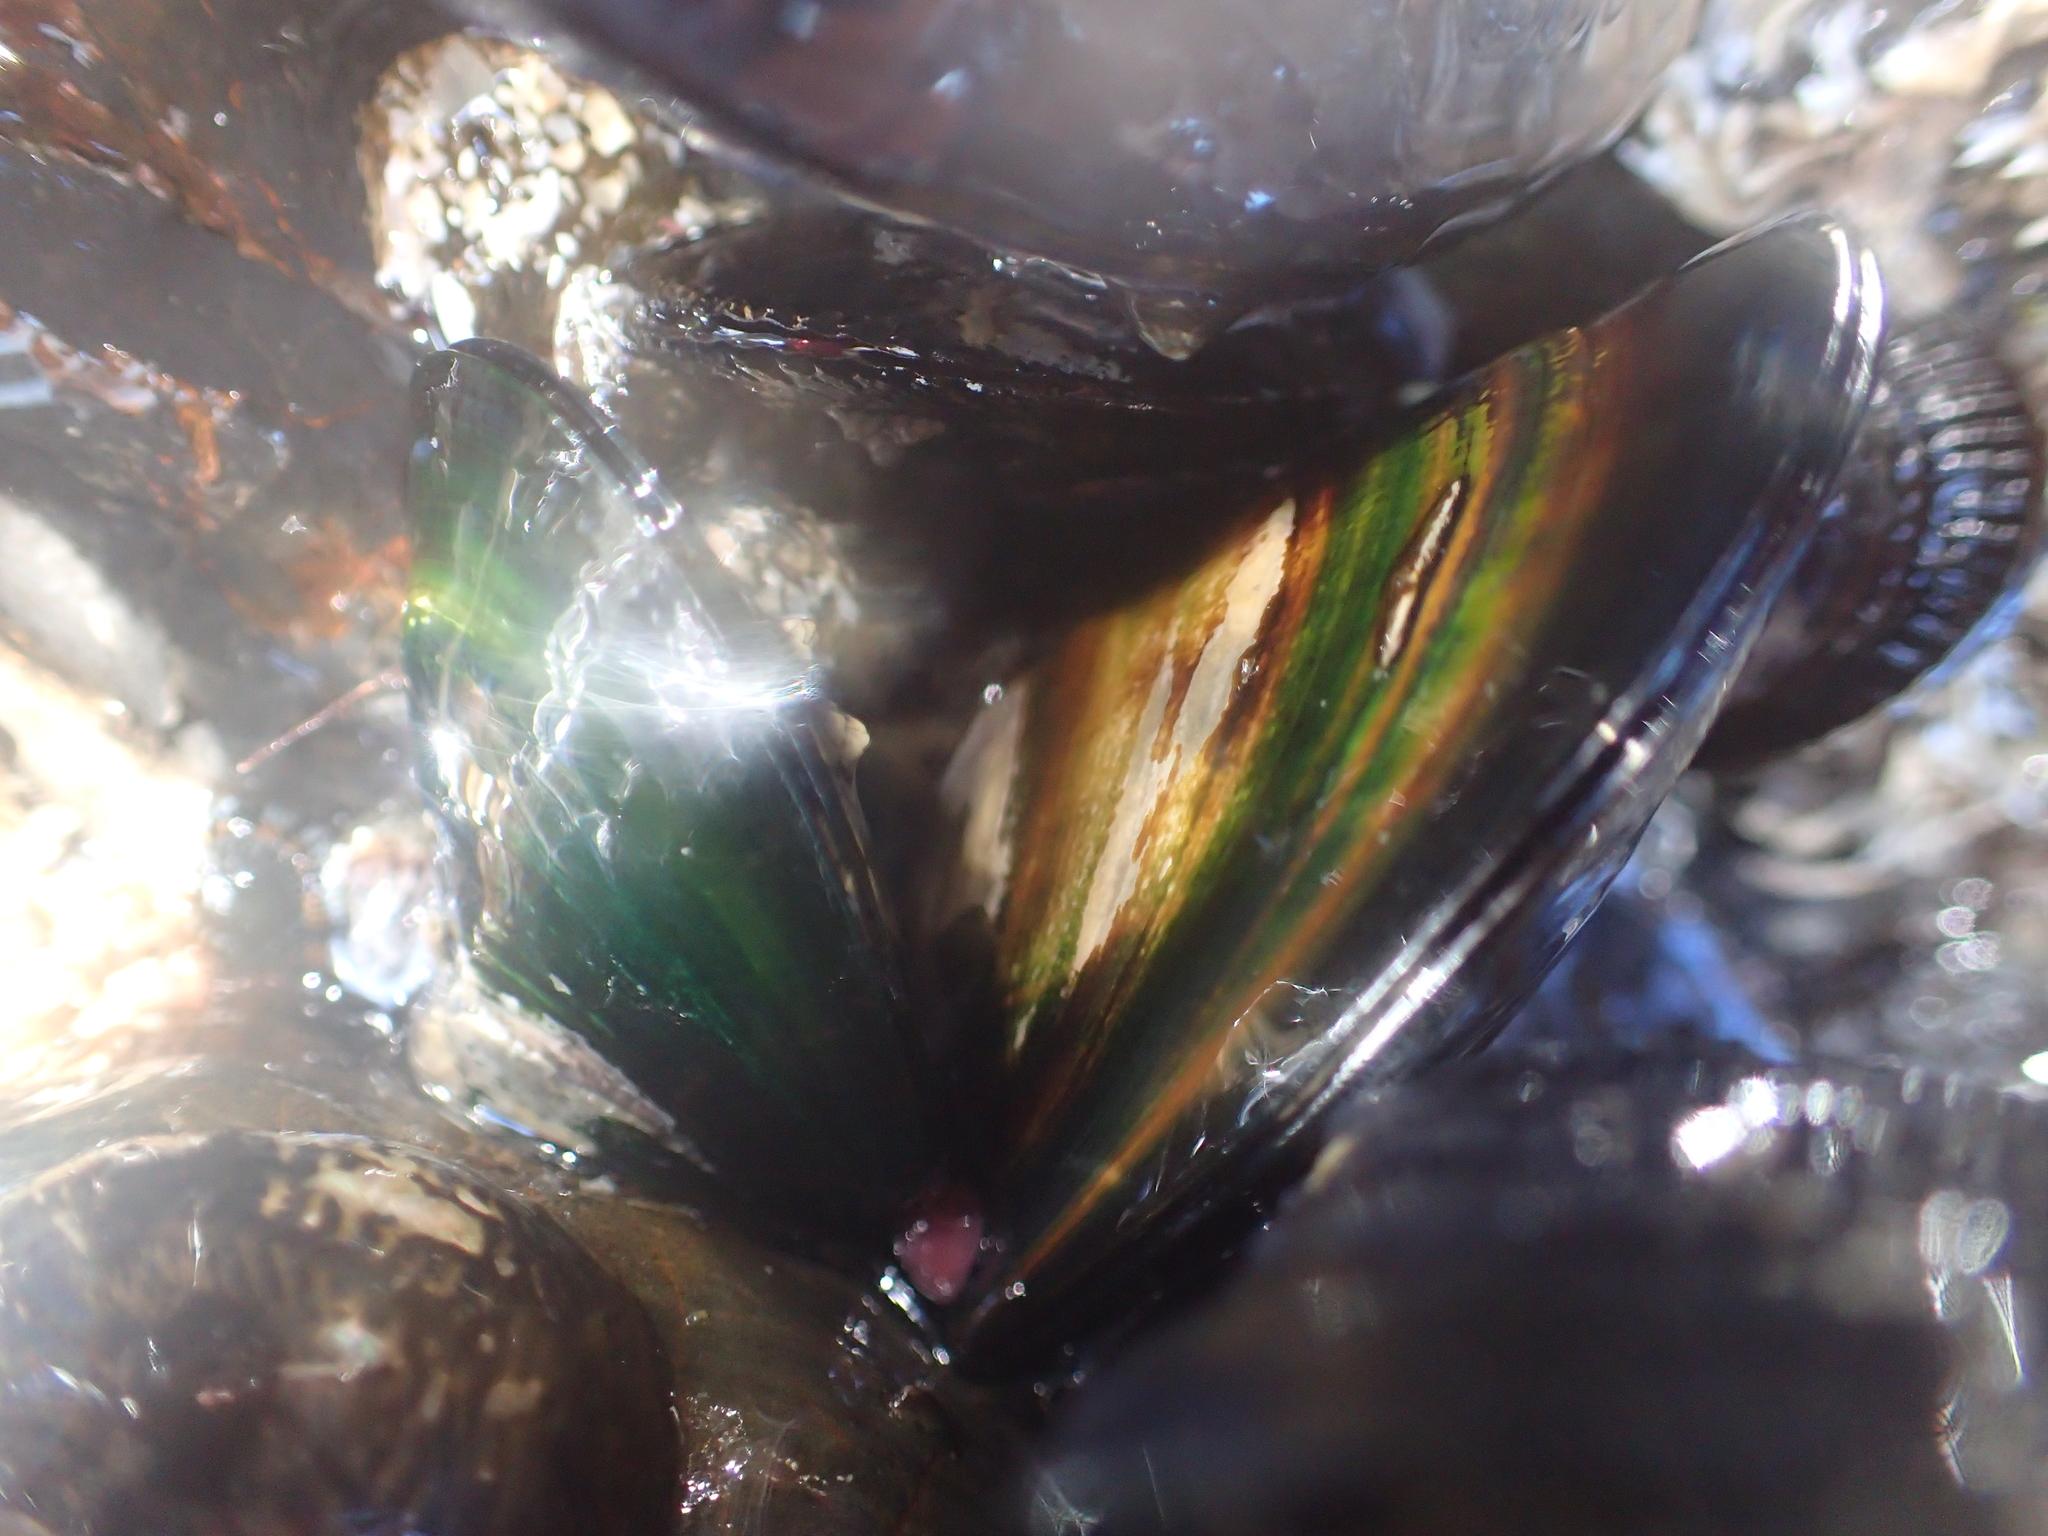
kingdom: Animalia
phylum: Mollusca
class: Bivalvia
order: Mytilida
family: Mytilidae
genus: Perna
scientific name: Perna canaliculus
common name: New zealand greenshelltm
